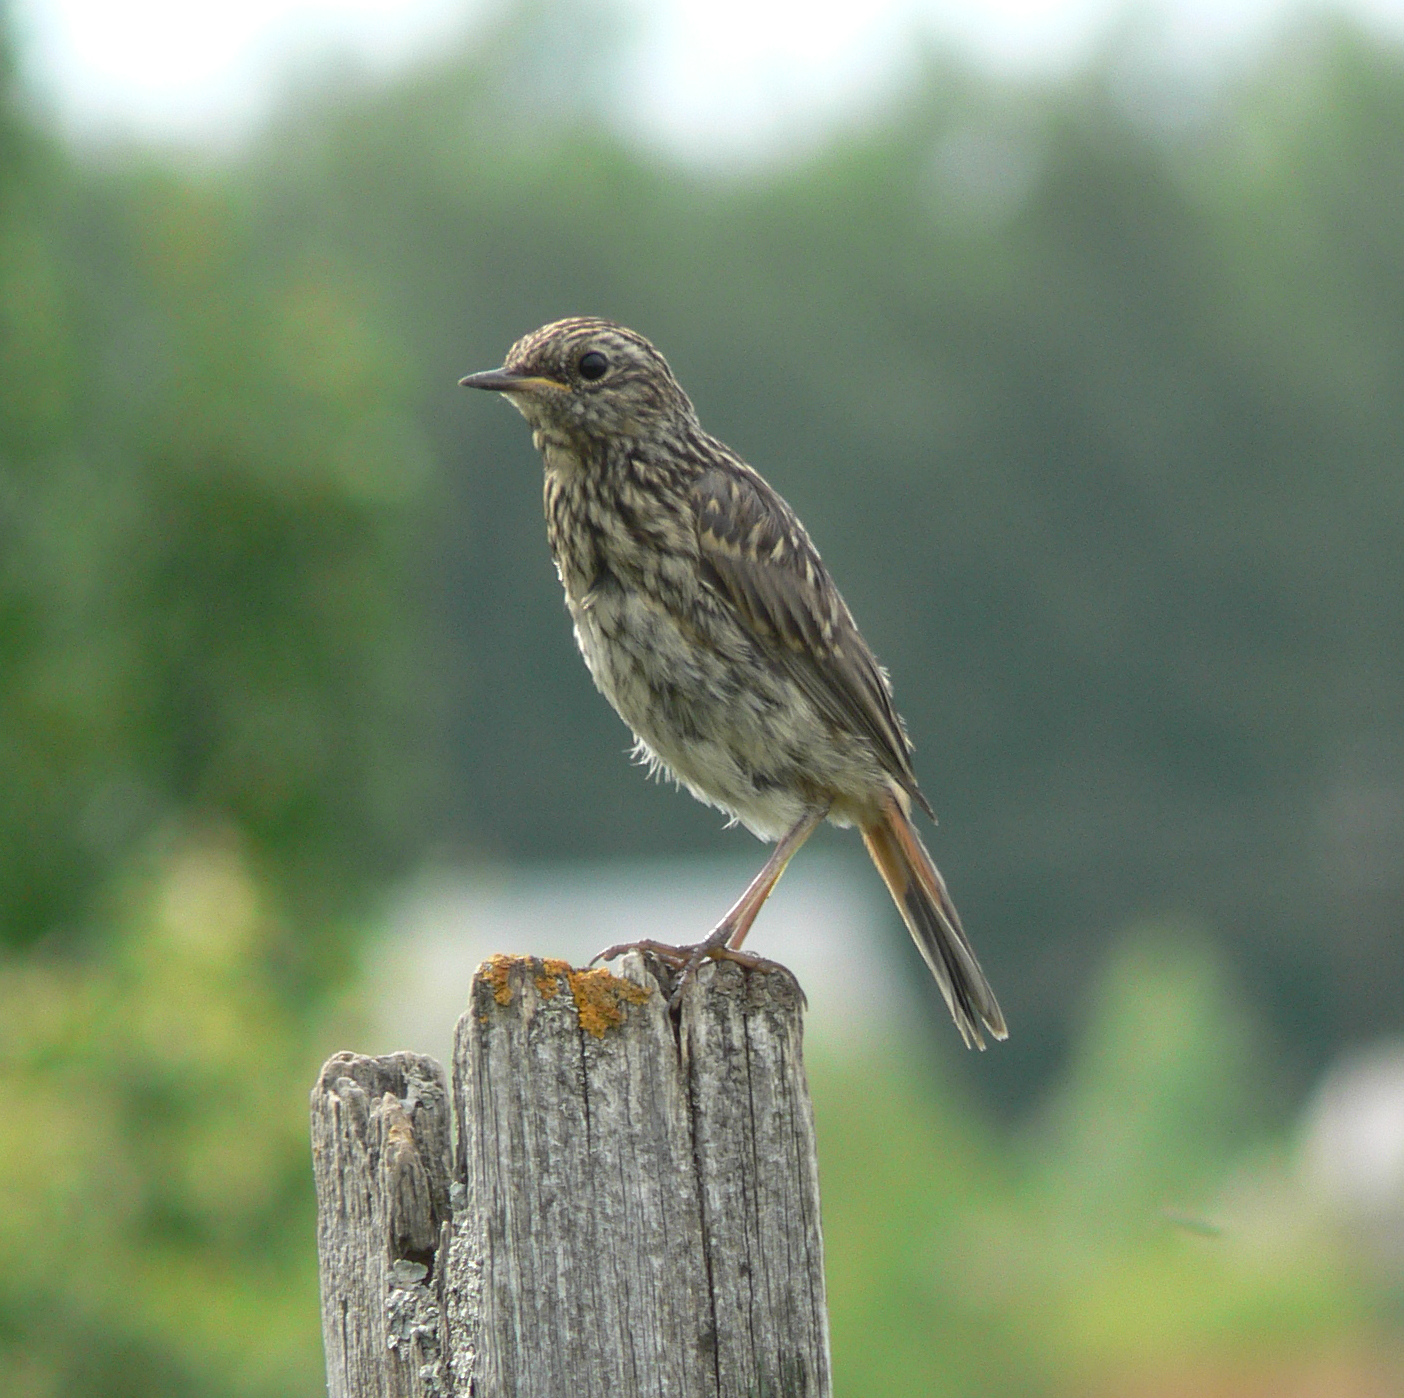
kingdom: Animalia
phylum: Chordata
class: Aves
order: Passeriformes
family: Muscicapidae
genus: Luscinia
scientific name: Luscinia svecica
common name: Bluethroat
